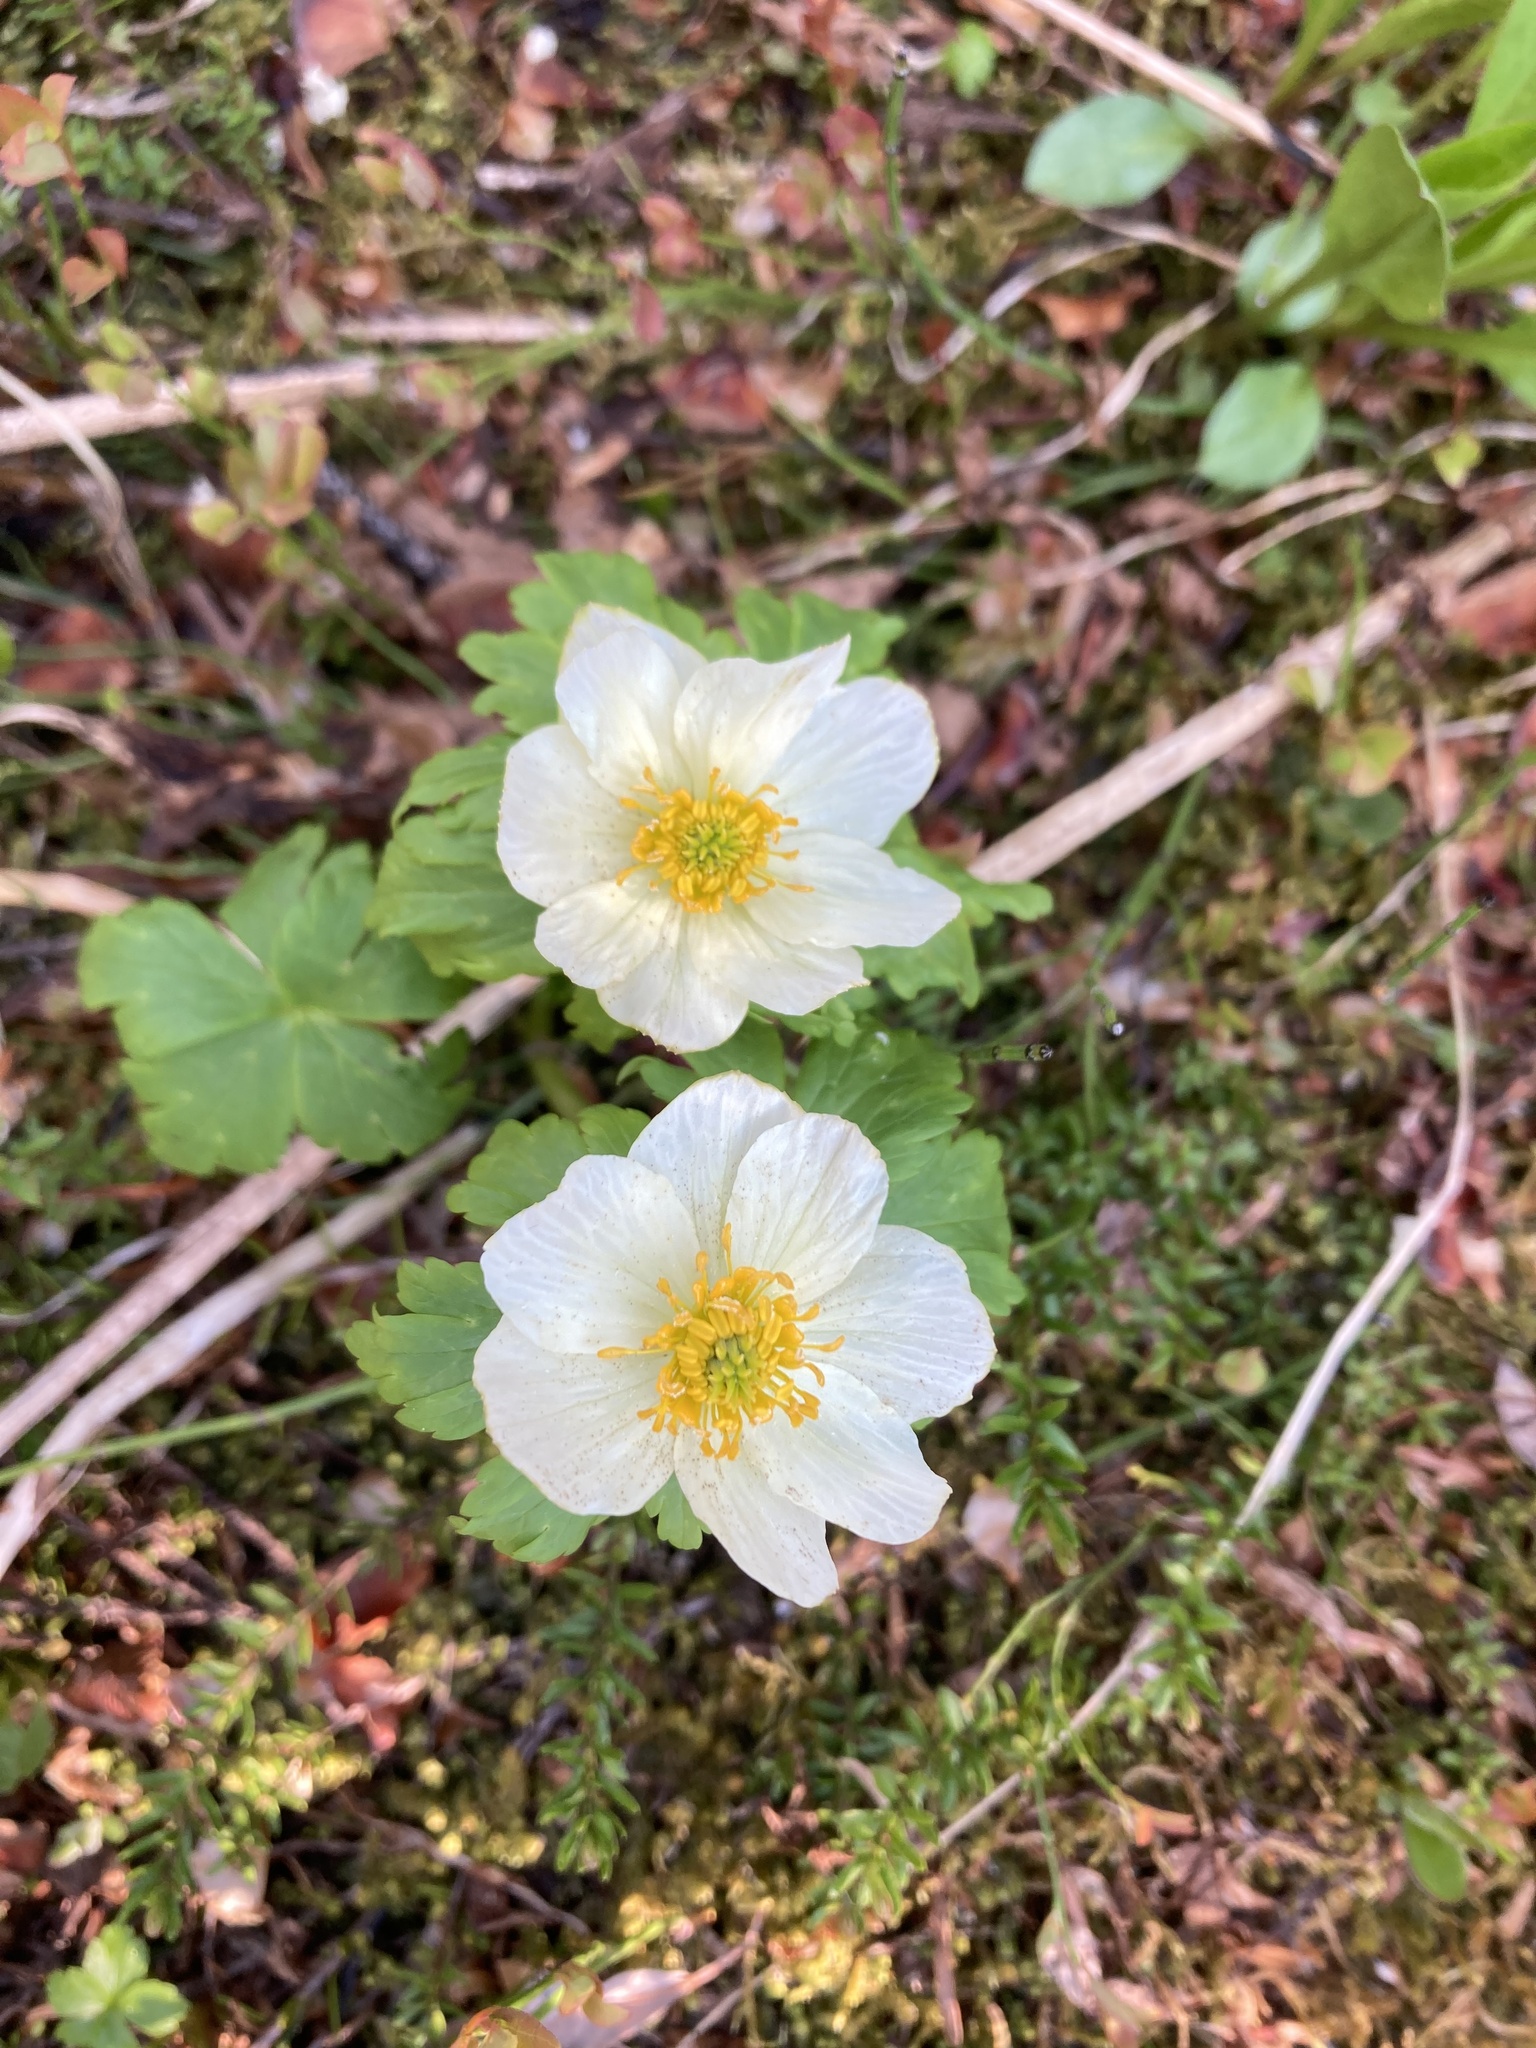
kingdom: Plantae
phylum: Tracheophyta
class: Magnoliopsida
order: Ranunculales
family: Ranunculaceae
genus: Trollius
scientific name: Trollius laxus
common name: American globeflower
